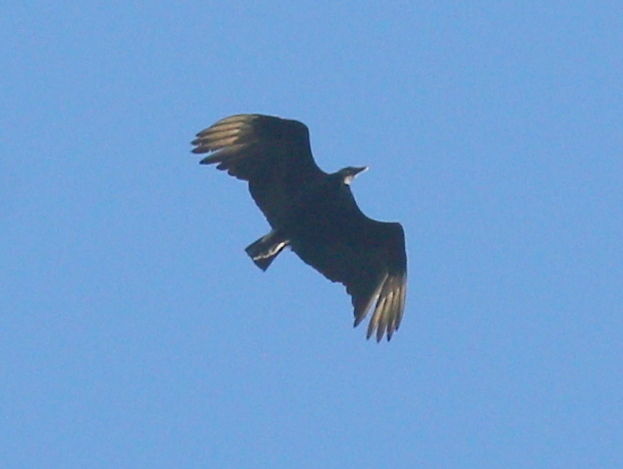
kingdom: Animalia
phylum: Chordata
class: Aves
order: Accipitriformes
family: Cathartidae
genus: Coragyps
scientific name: Coragyps atratus
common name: Black vulture
